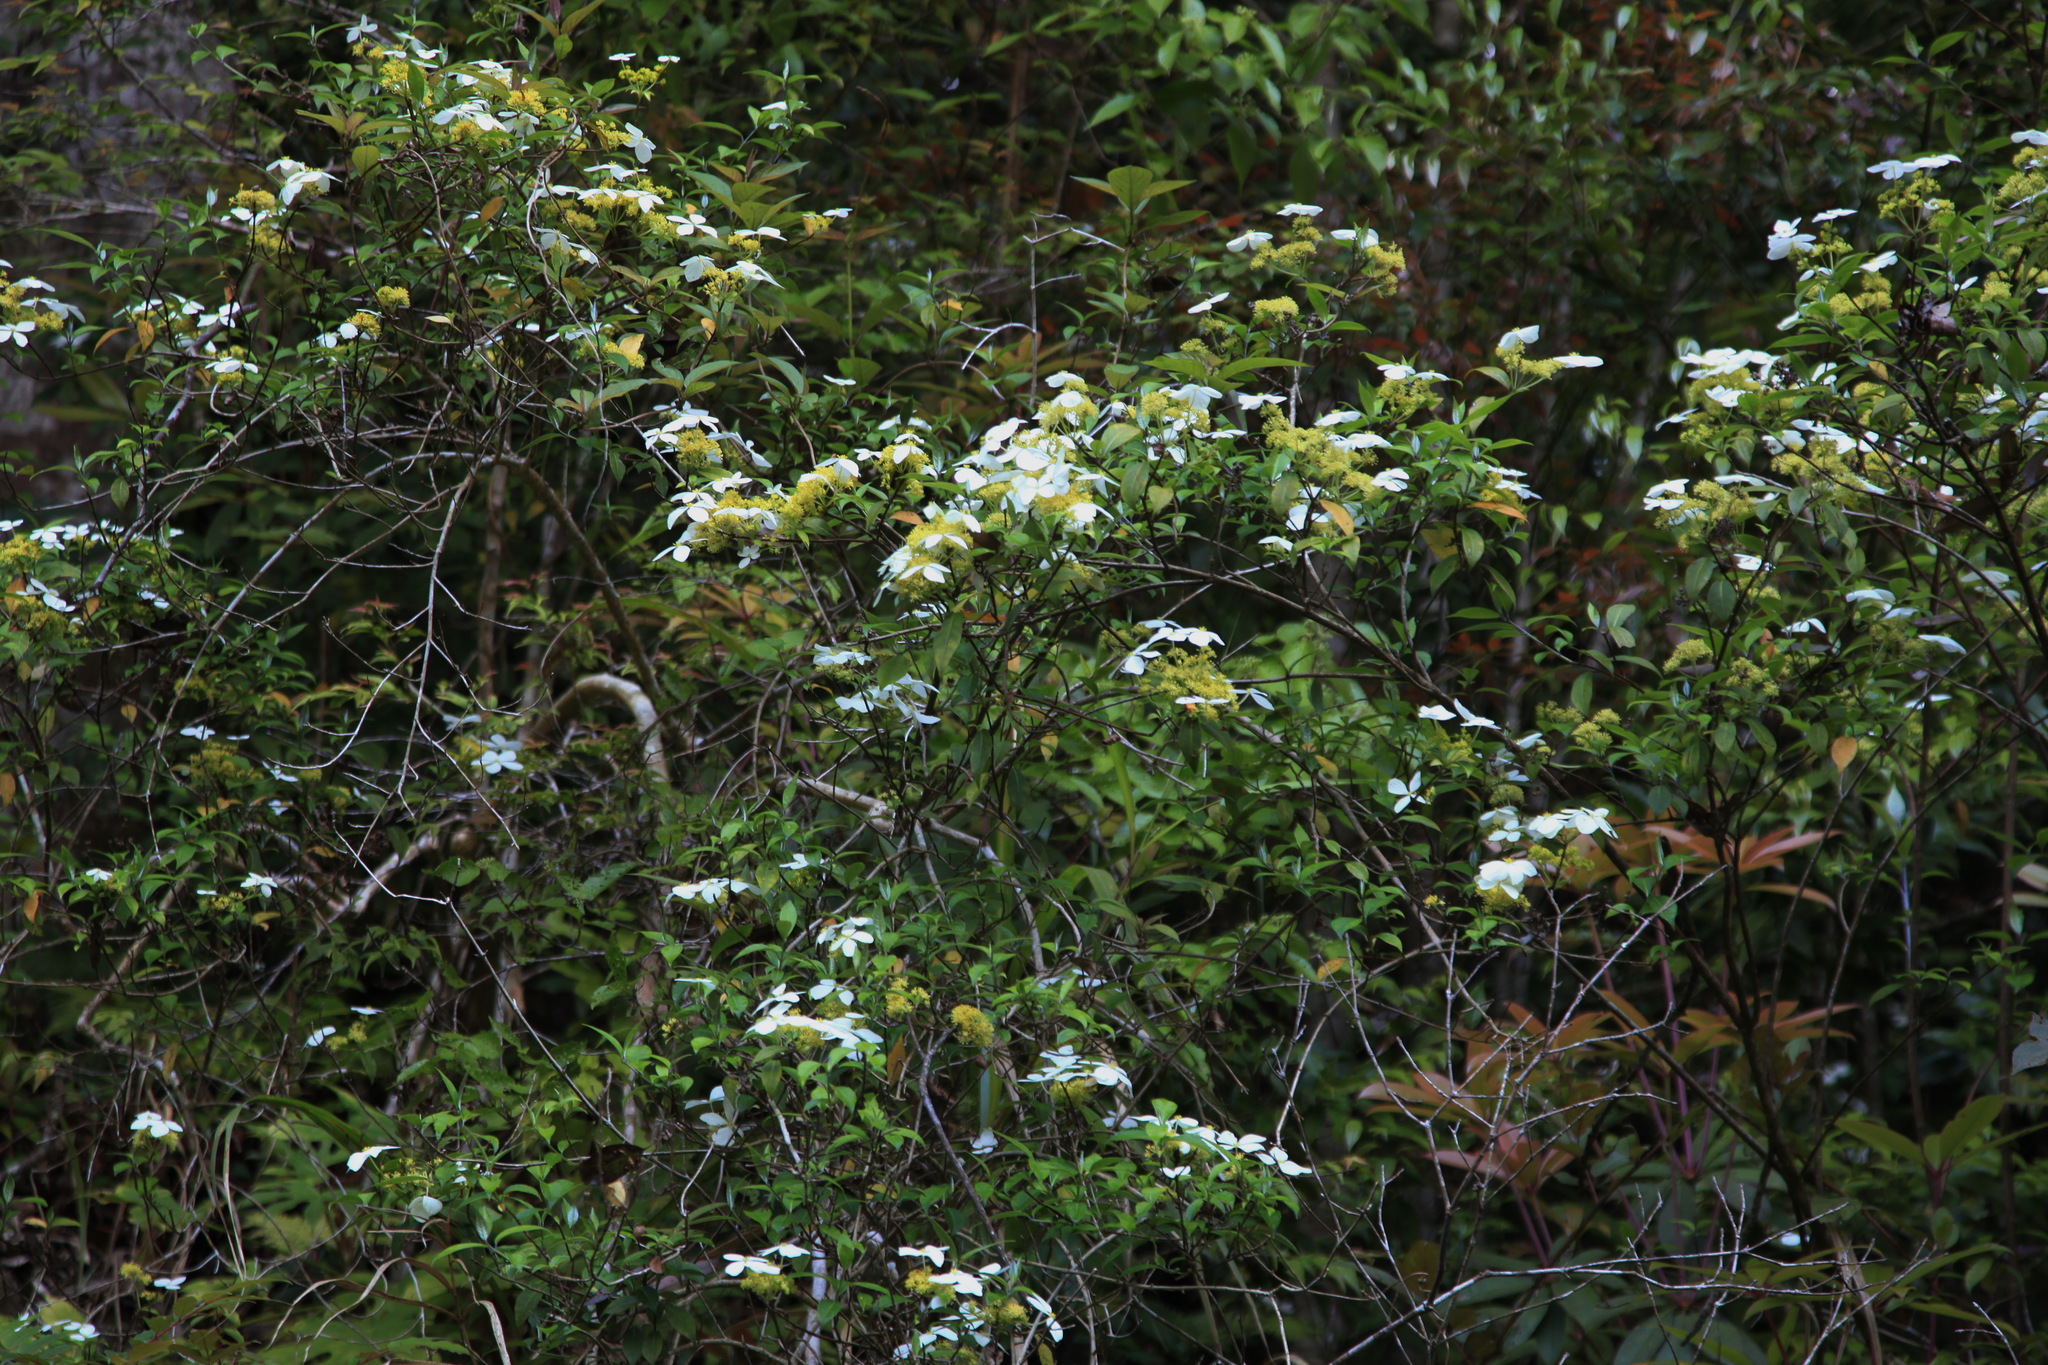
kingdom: Plantae
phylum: Tracheophyta
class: Magnoliopsida
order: Cornales
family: Hydrangeaceae
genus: Hydrangea
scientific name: Hydrangea chinensis
